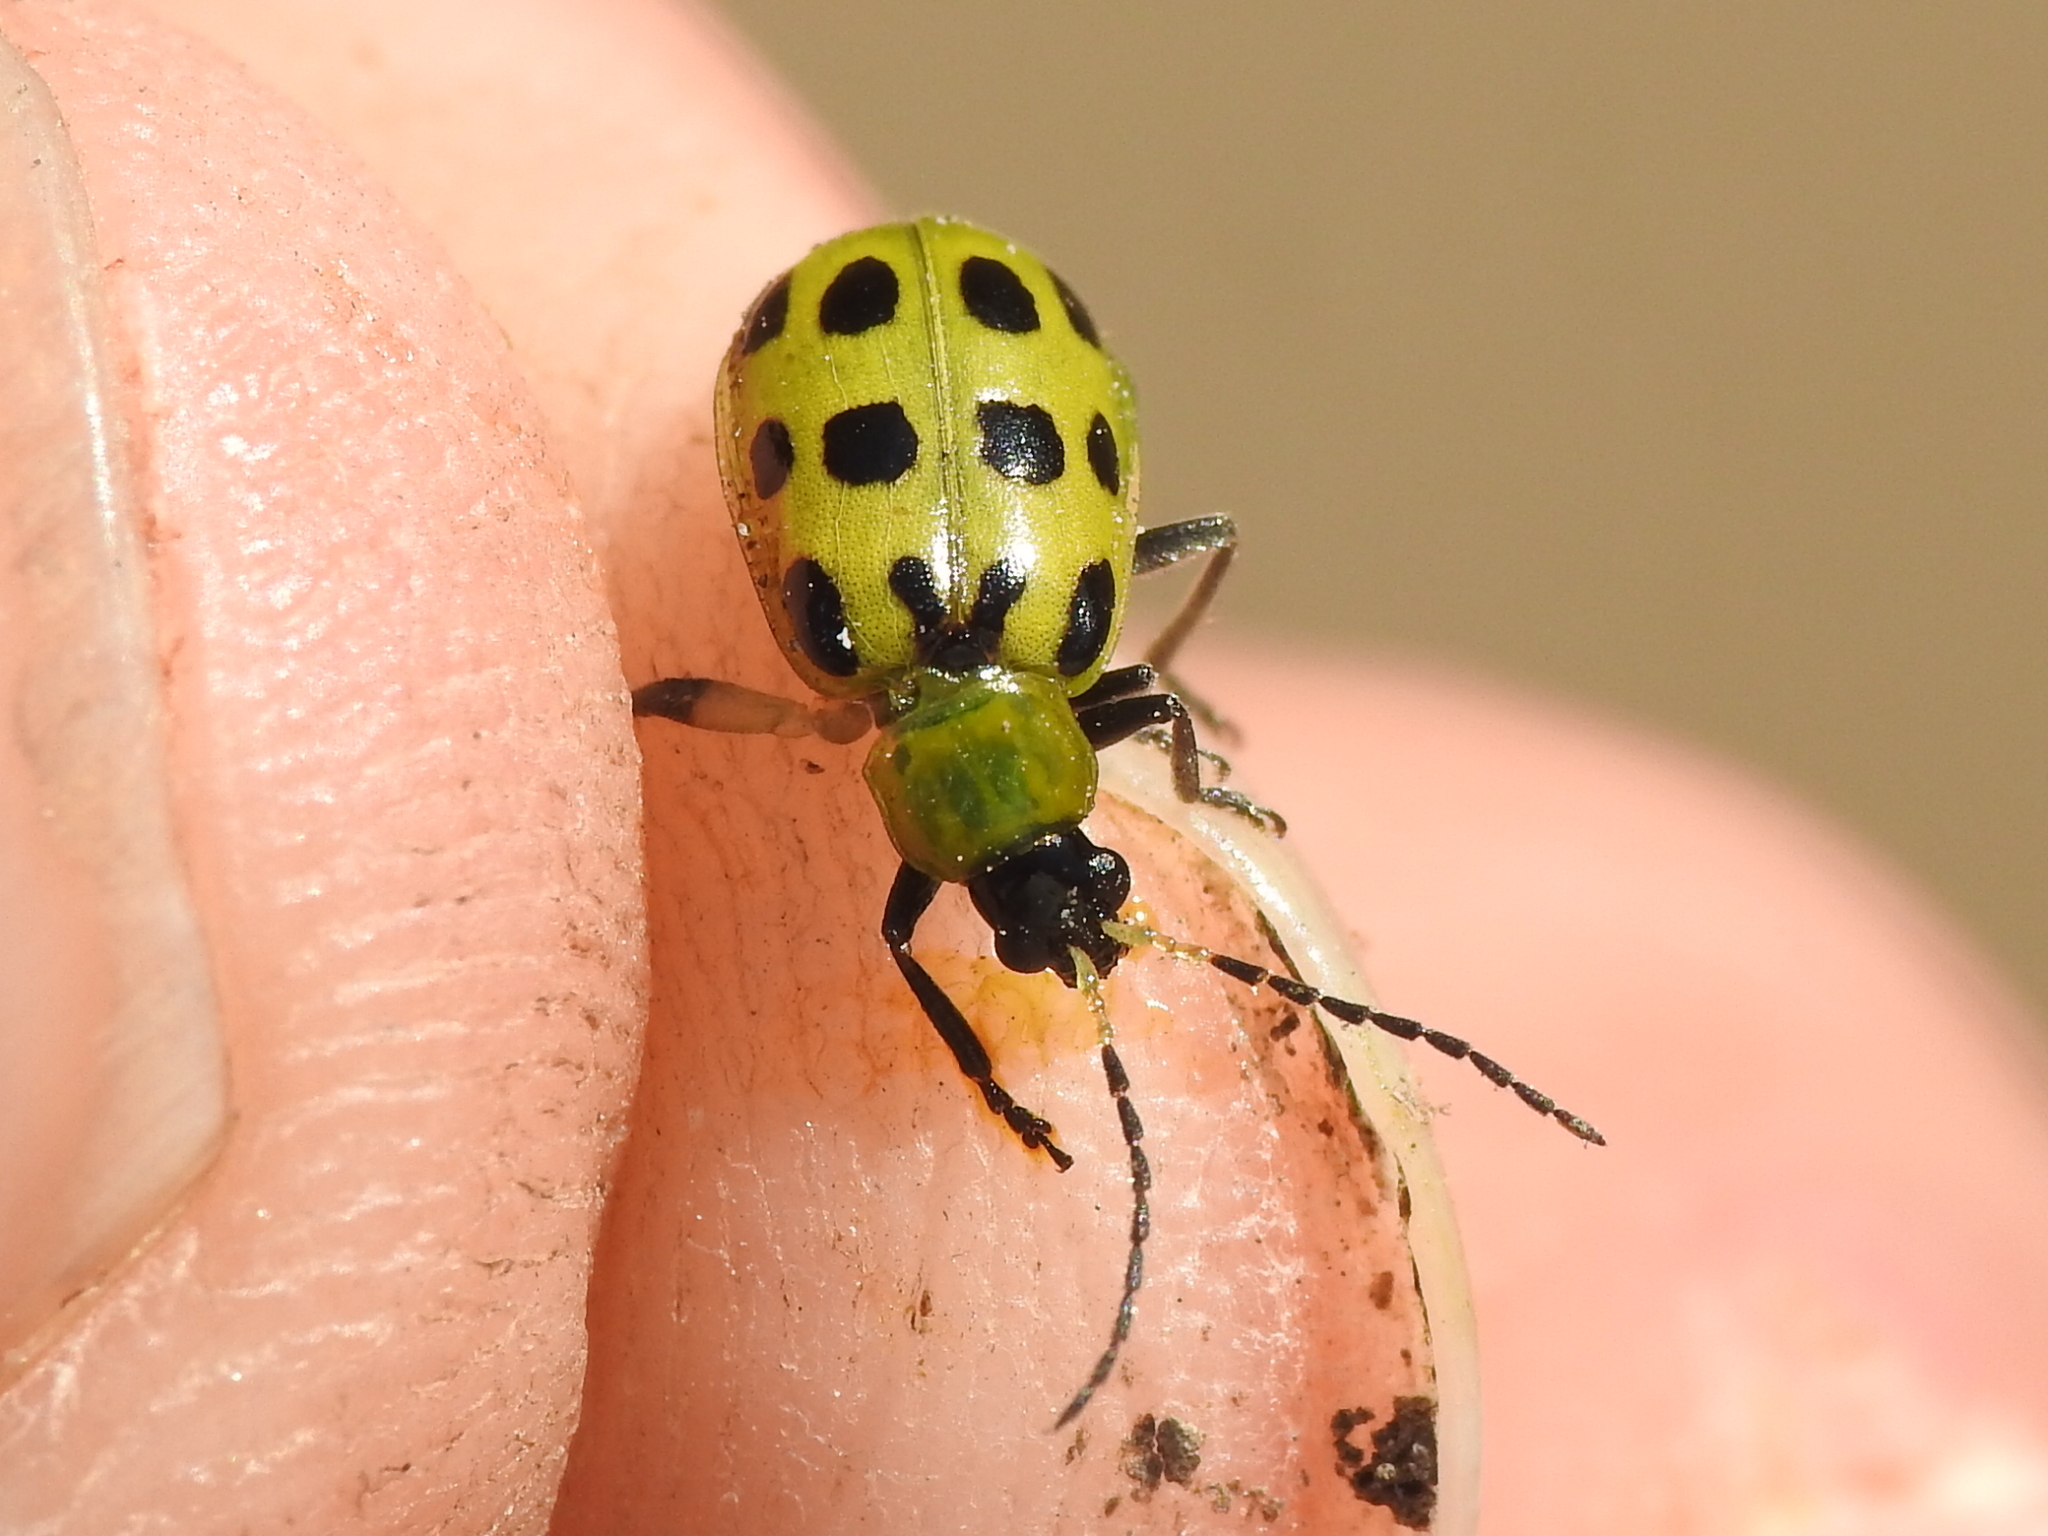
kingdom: Animalia
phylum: Arthropoda
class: Insecta
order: Coleoptera
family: Chrysomelidae
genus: Diabrotica
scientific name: Diabrotica undecimpunctata
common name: Spotted cucumber beetle
